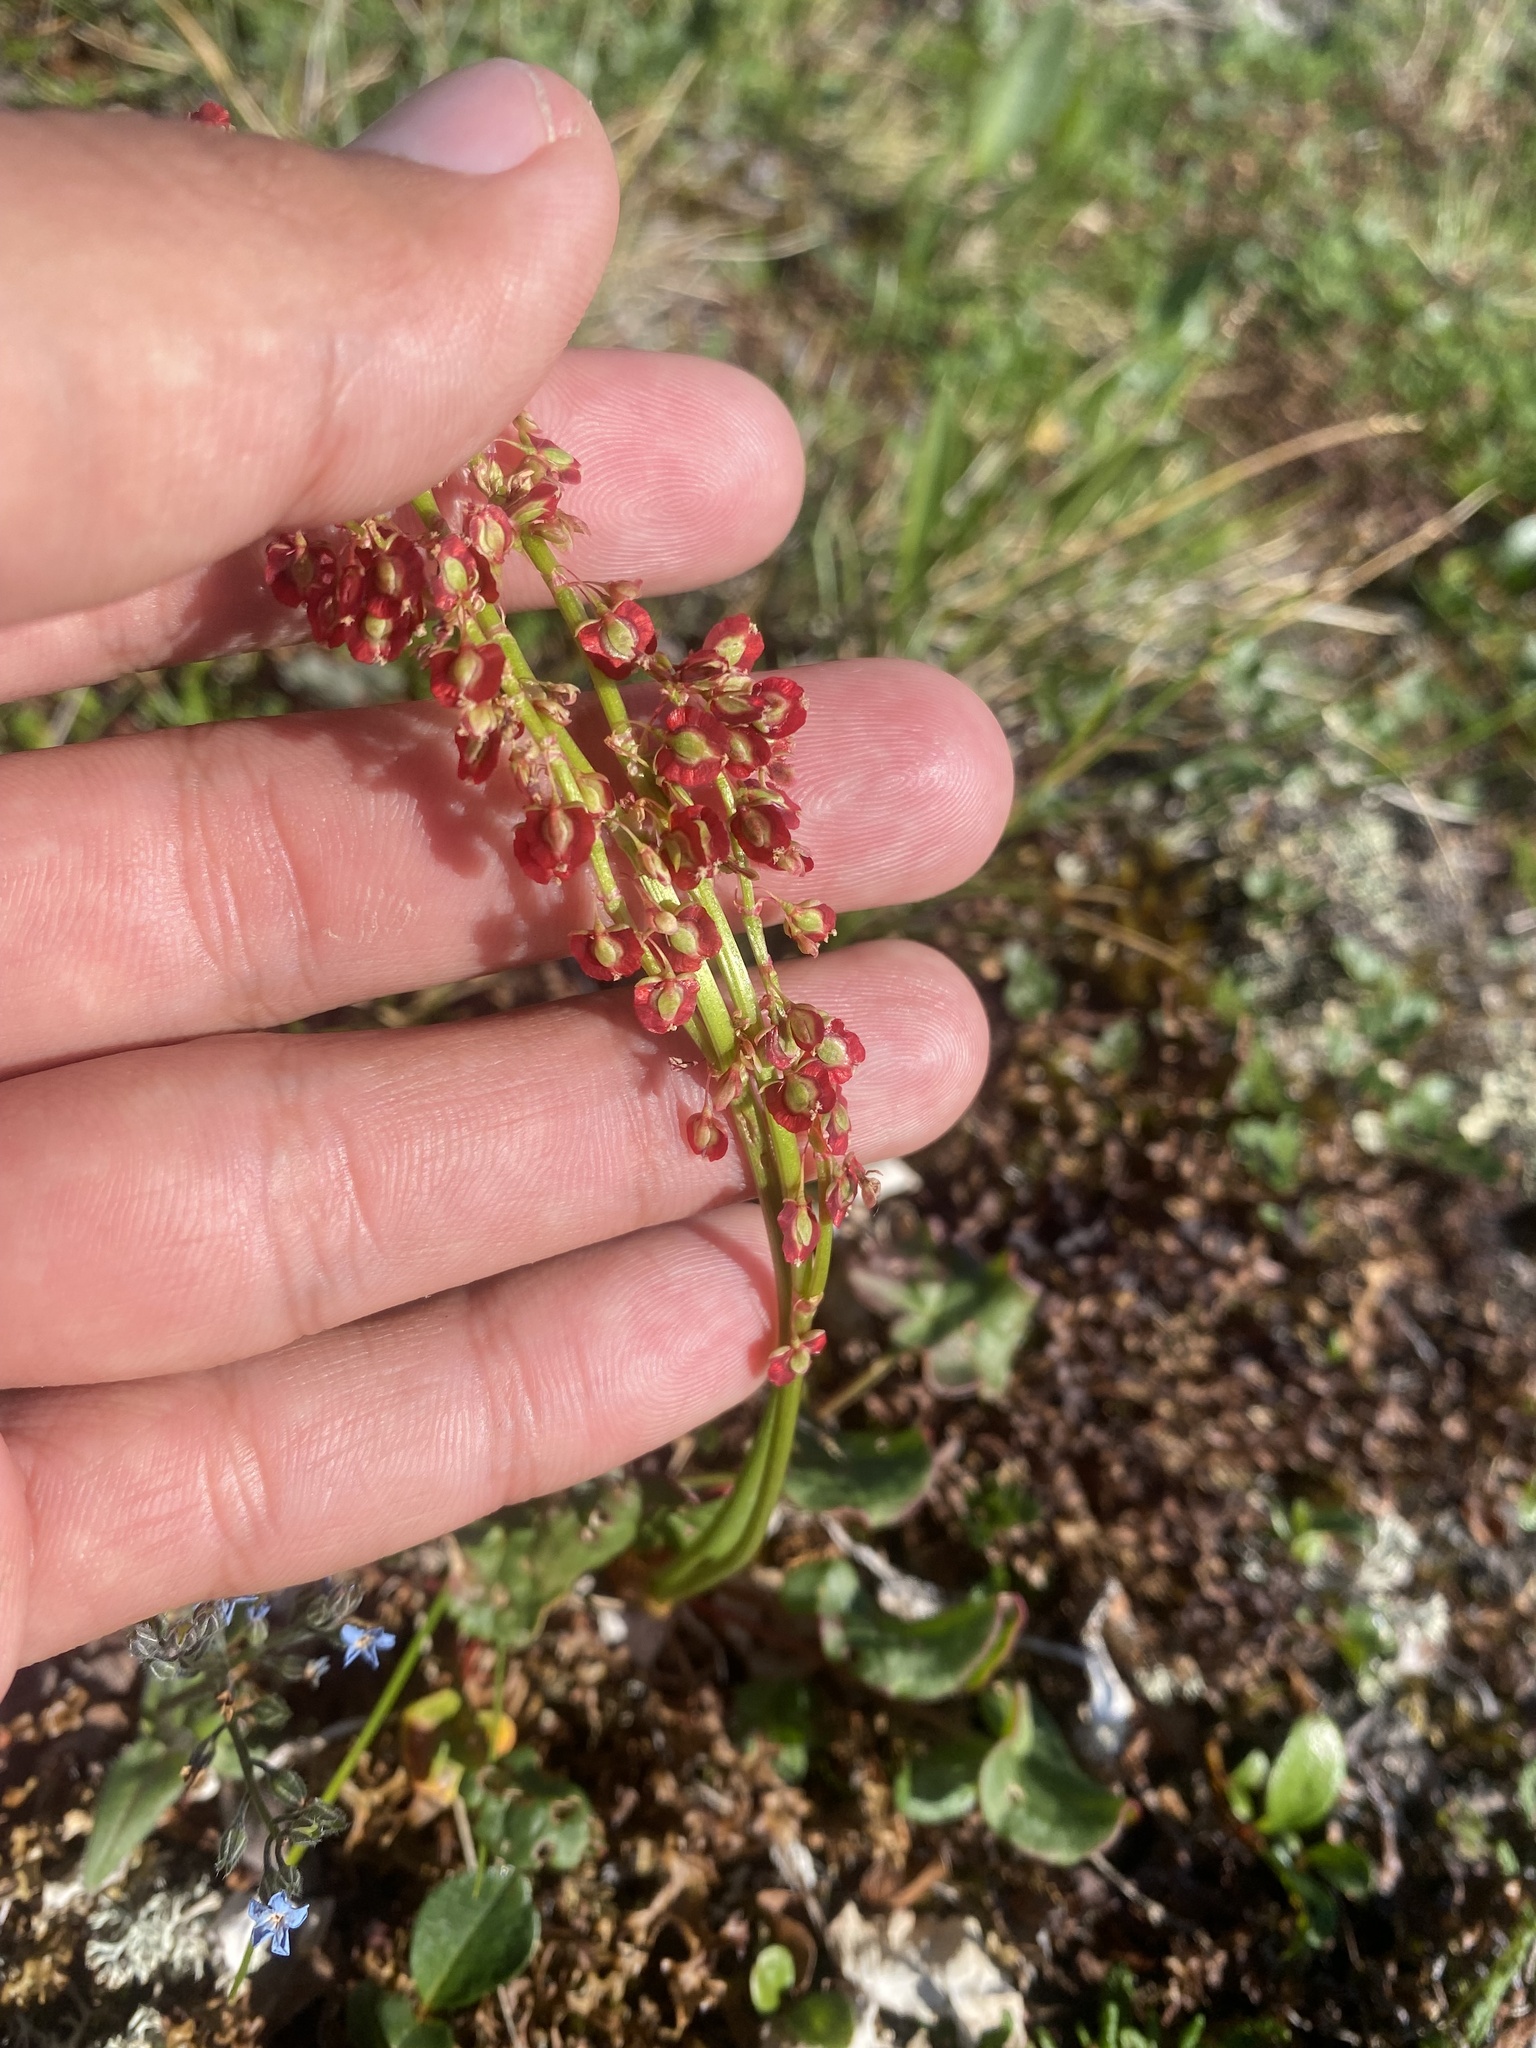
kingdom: Plantae
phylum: Tracheophyta
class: Magnoliopsida
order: Caryophyllales
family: Polygonaceae
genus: Oxyria
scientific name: Oxyria digyna
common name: Alpine mountain-sorrel
